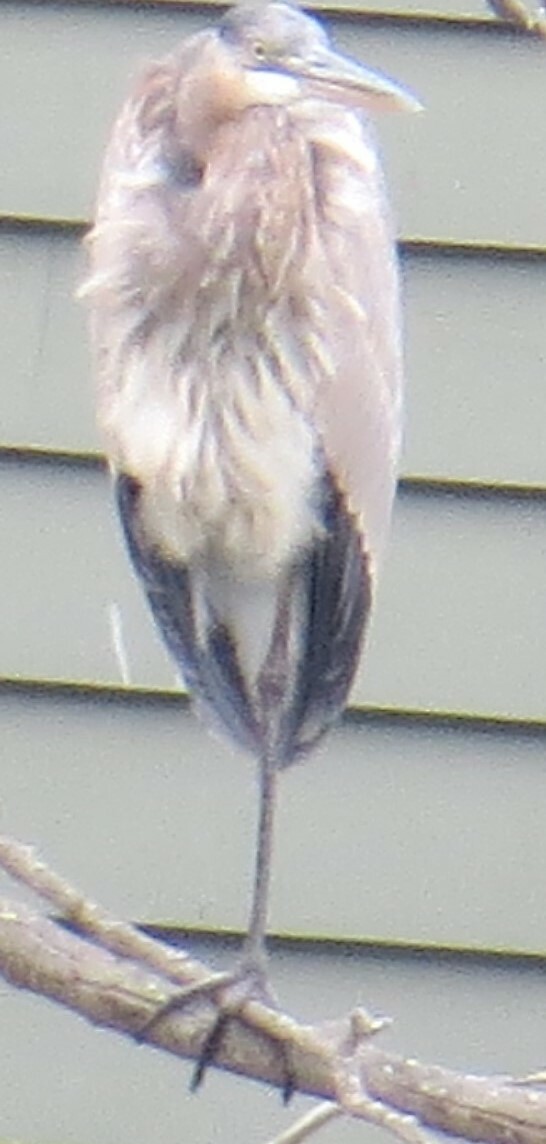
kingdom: Animalia
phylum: Chordata
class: Aves
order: Pelecaniformes
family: Ardeidae
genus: Ardea
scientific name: Ardea herodias
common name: Great blue heron
